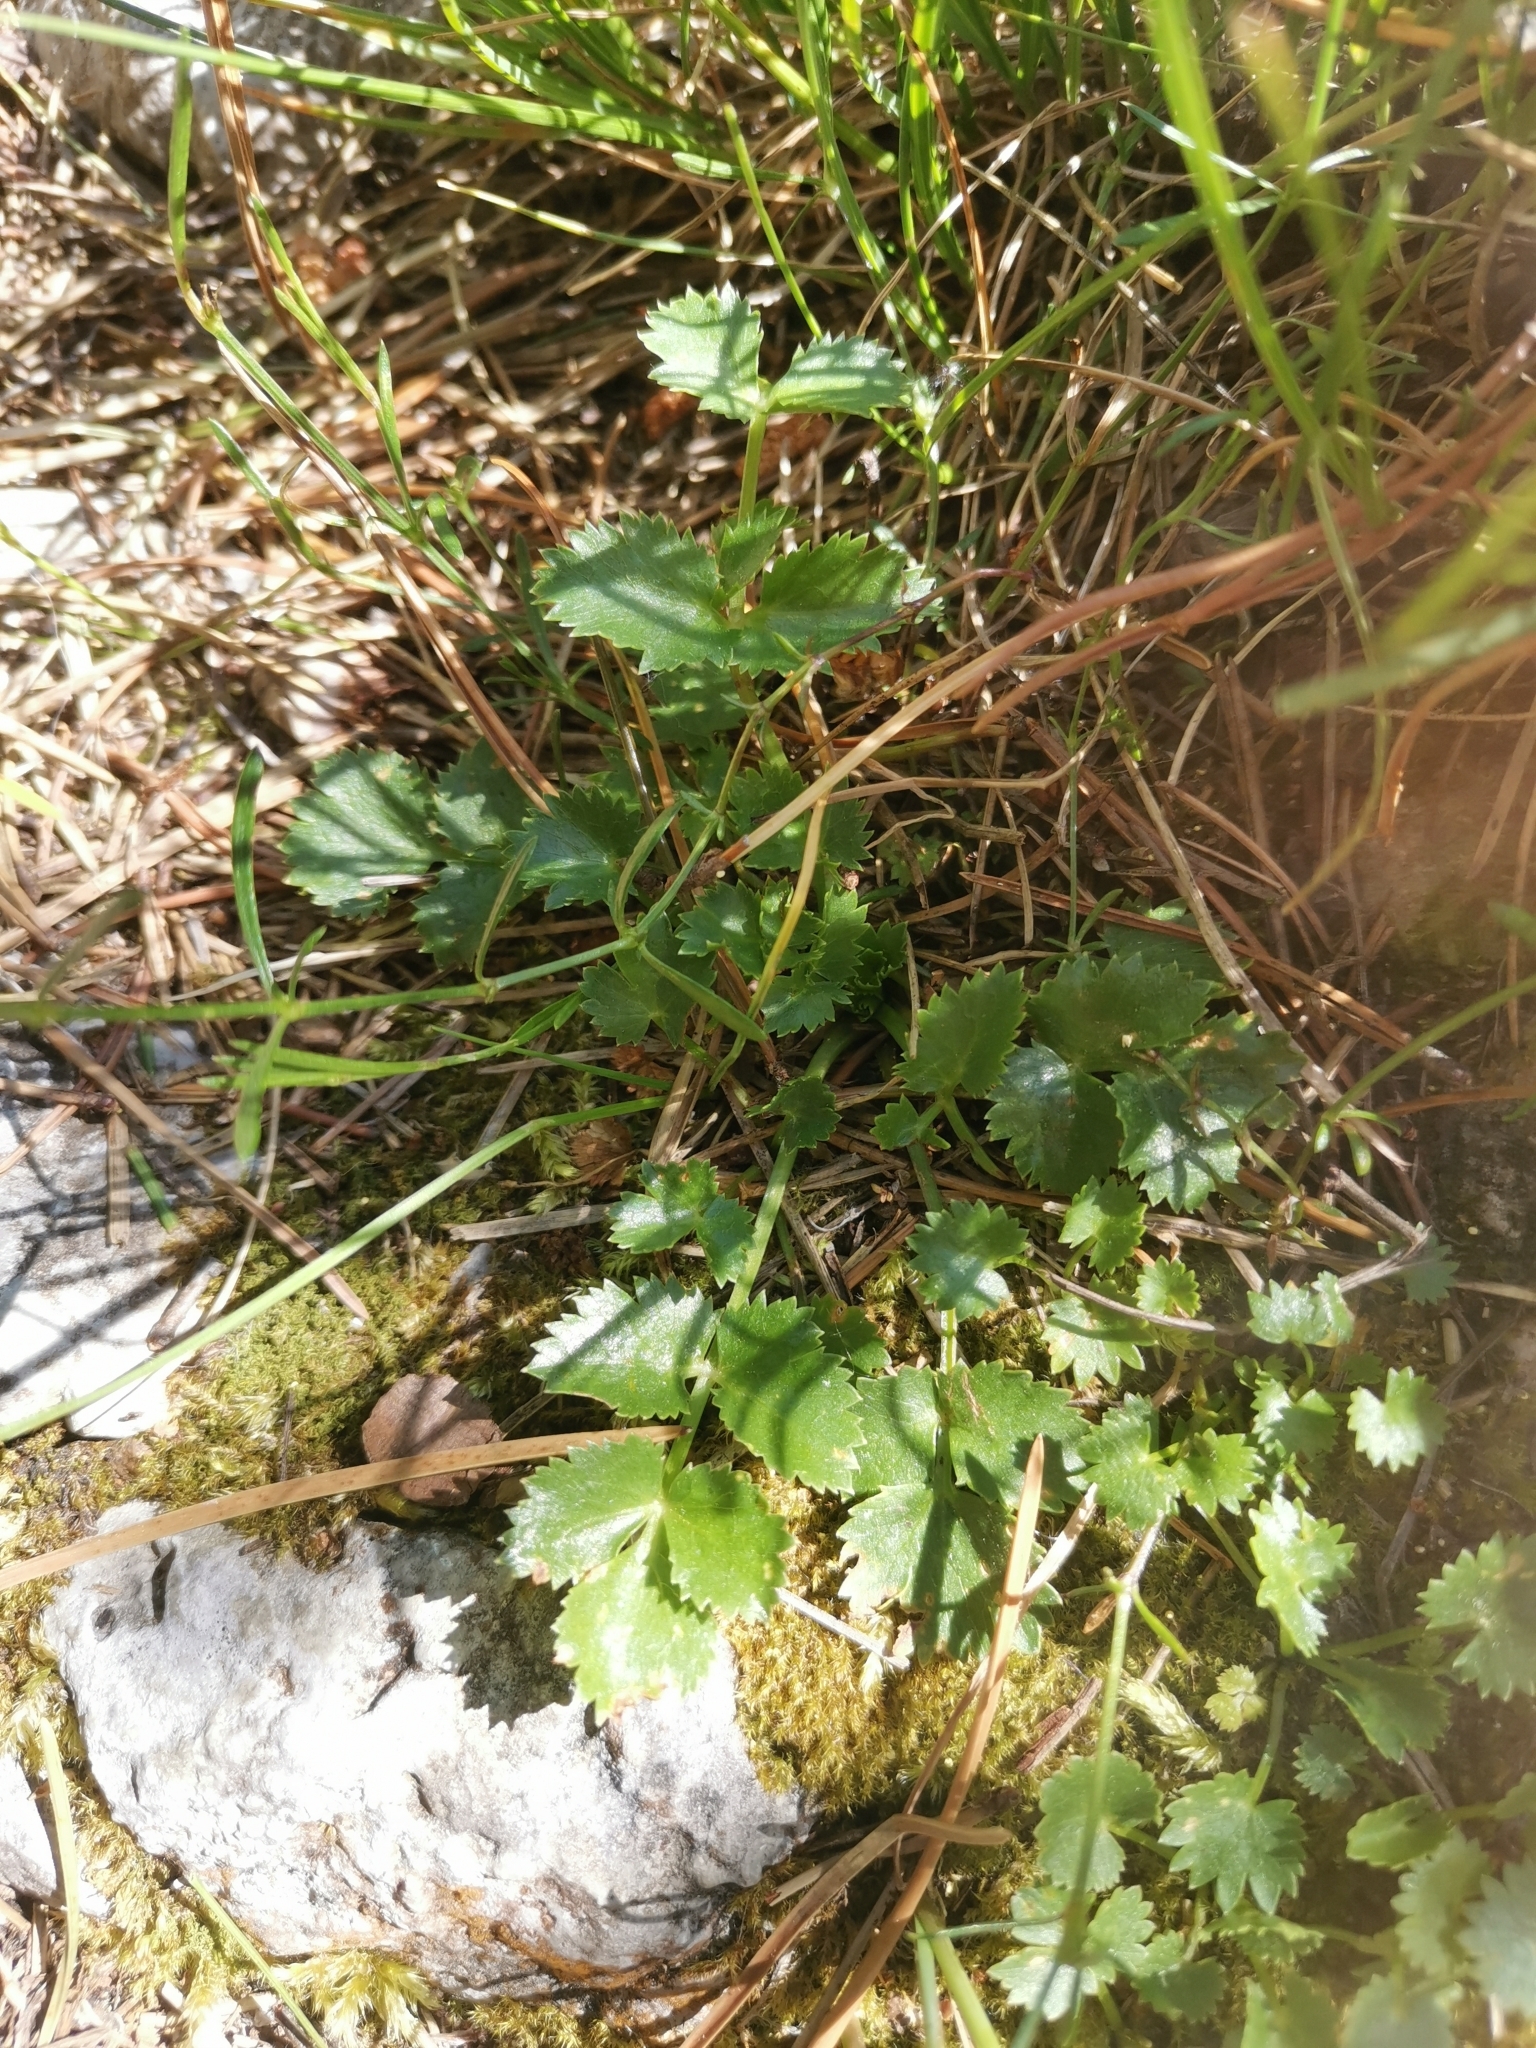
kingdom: Plantae
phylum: Tracheophyta
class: Magnoliopsida
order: Apiales
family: Apiaceae
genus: Hladnikia
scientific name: Hladnikia pastinacifolia
